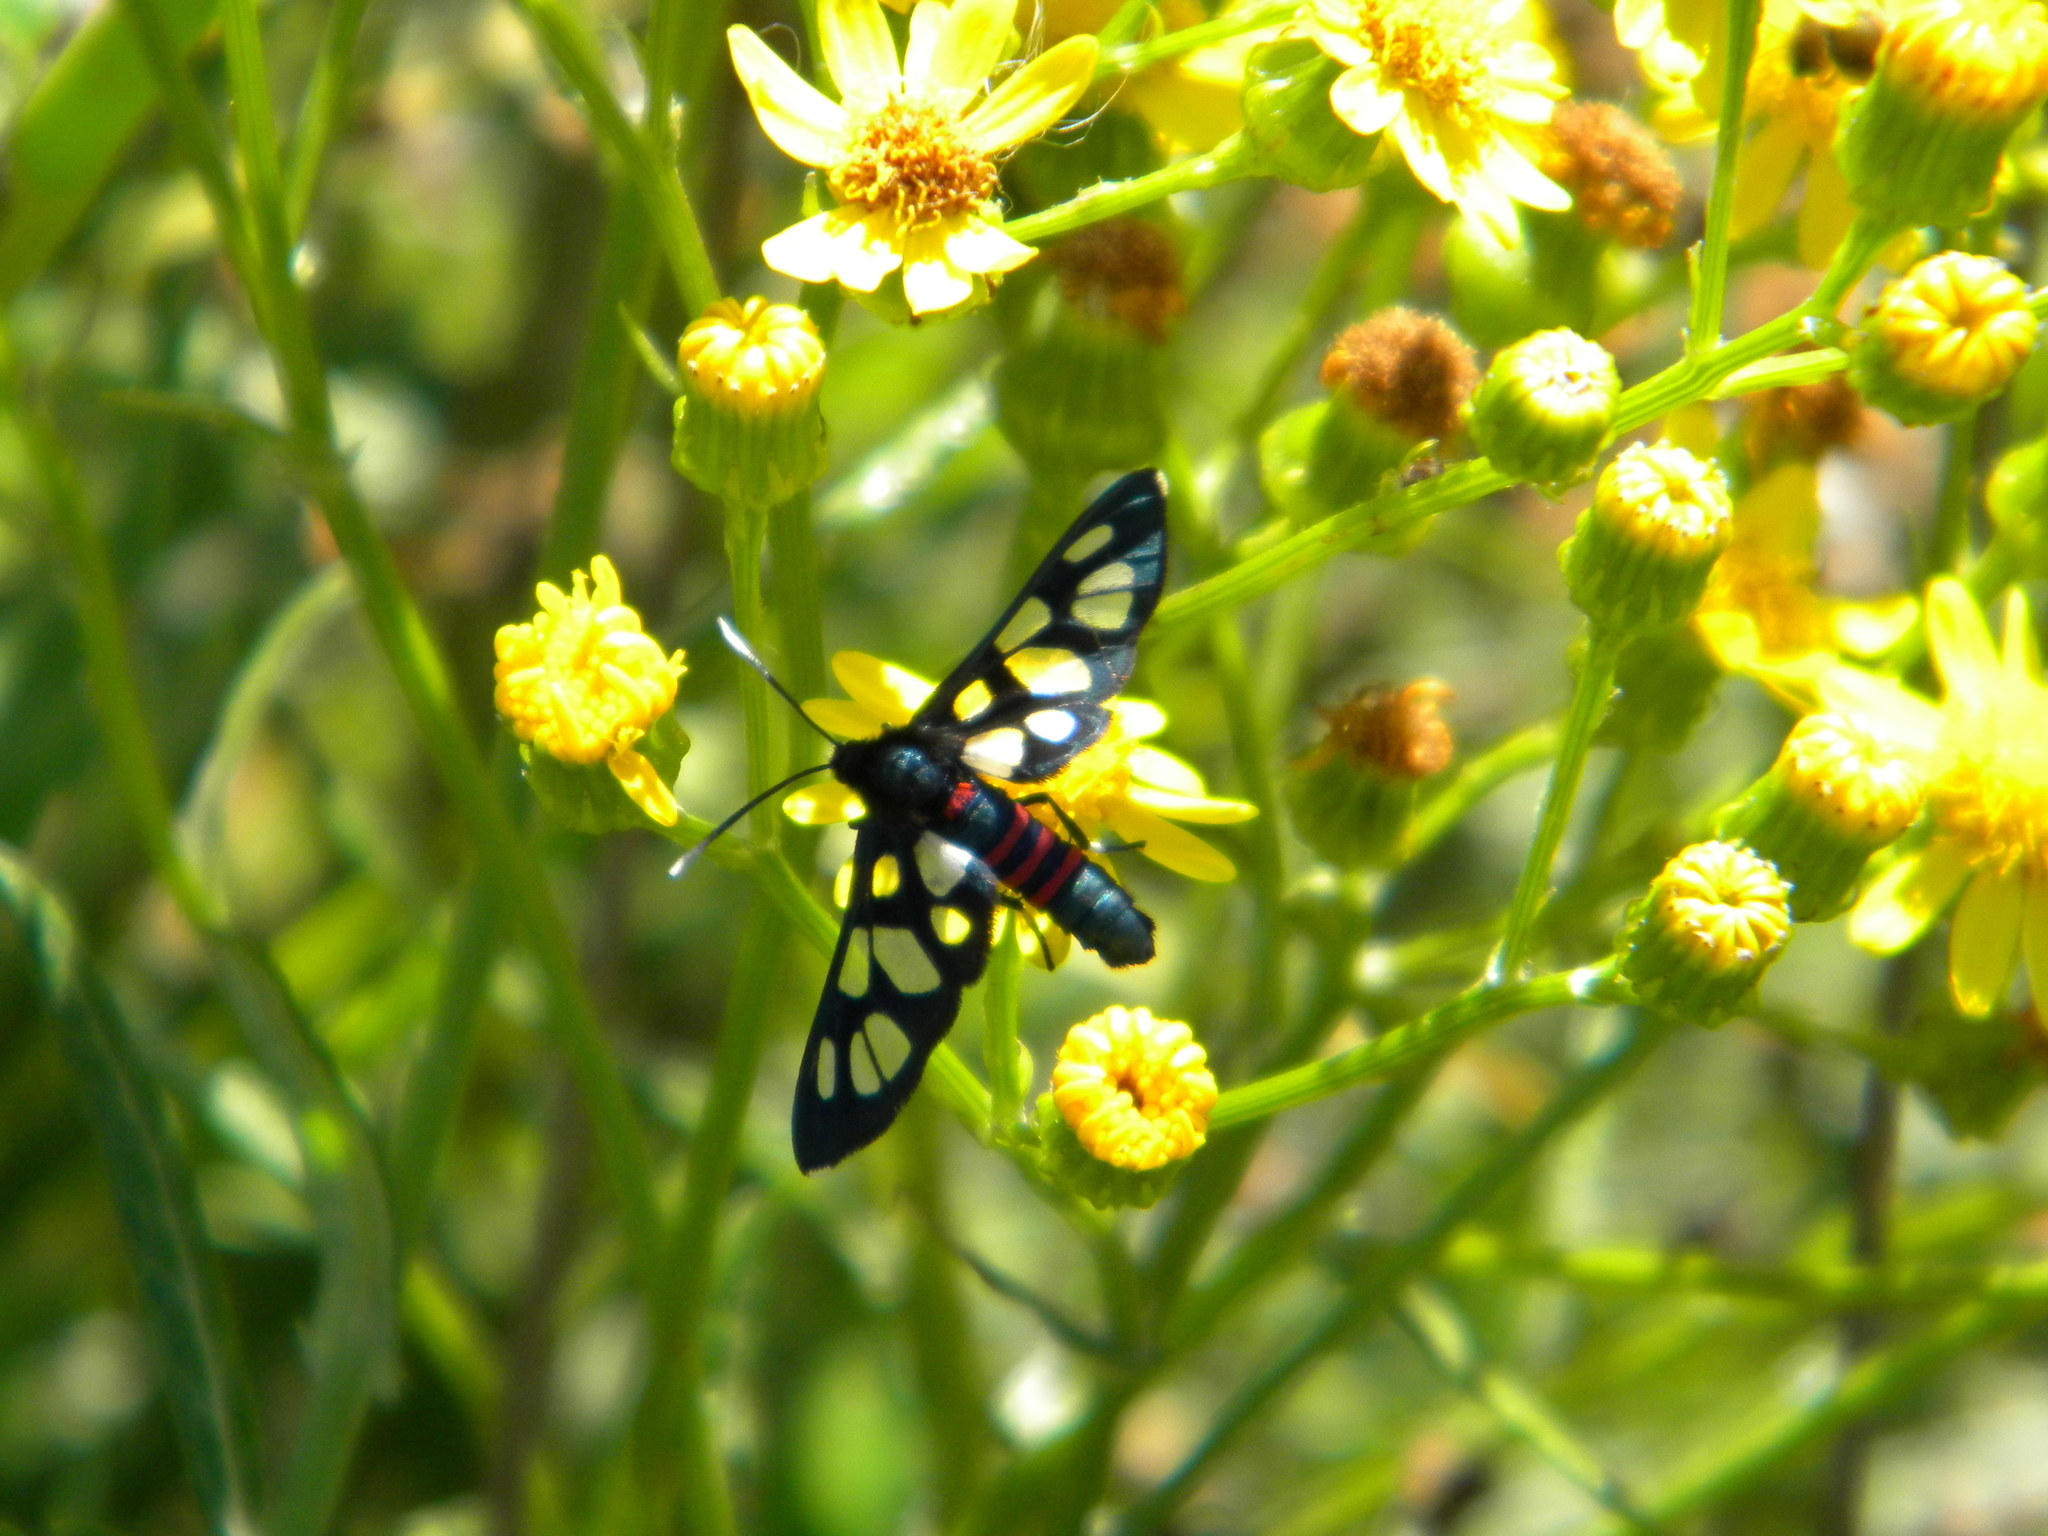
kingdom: Animalia
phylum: Arthropoda
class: Insecta
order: Lepidoptera
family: Erebidae
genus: Amata
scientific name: Amata cerbera
